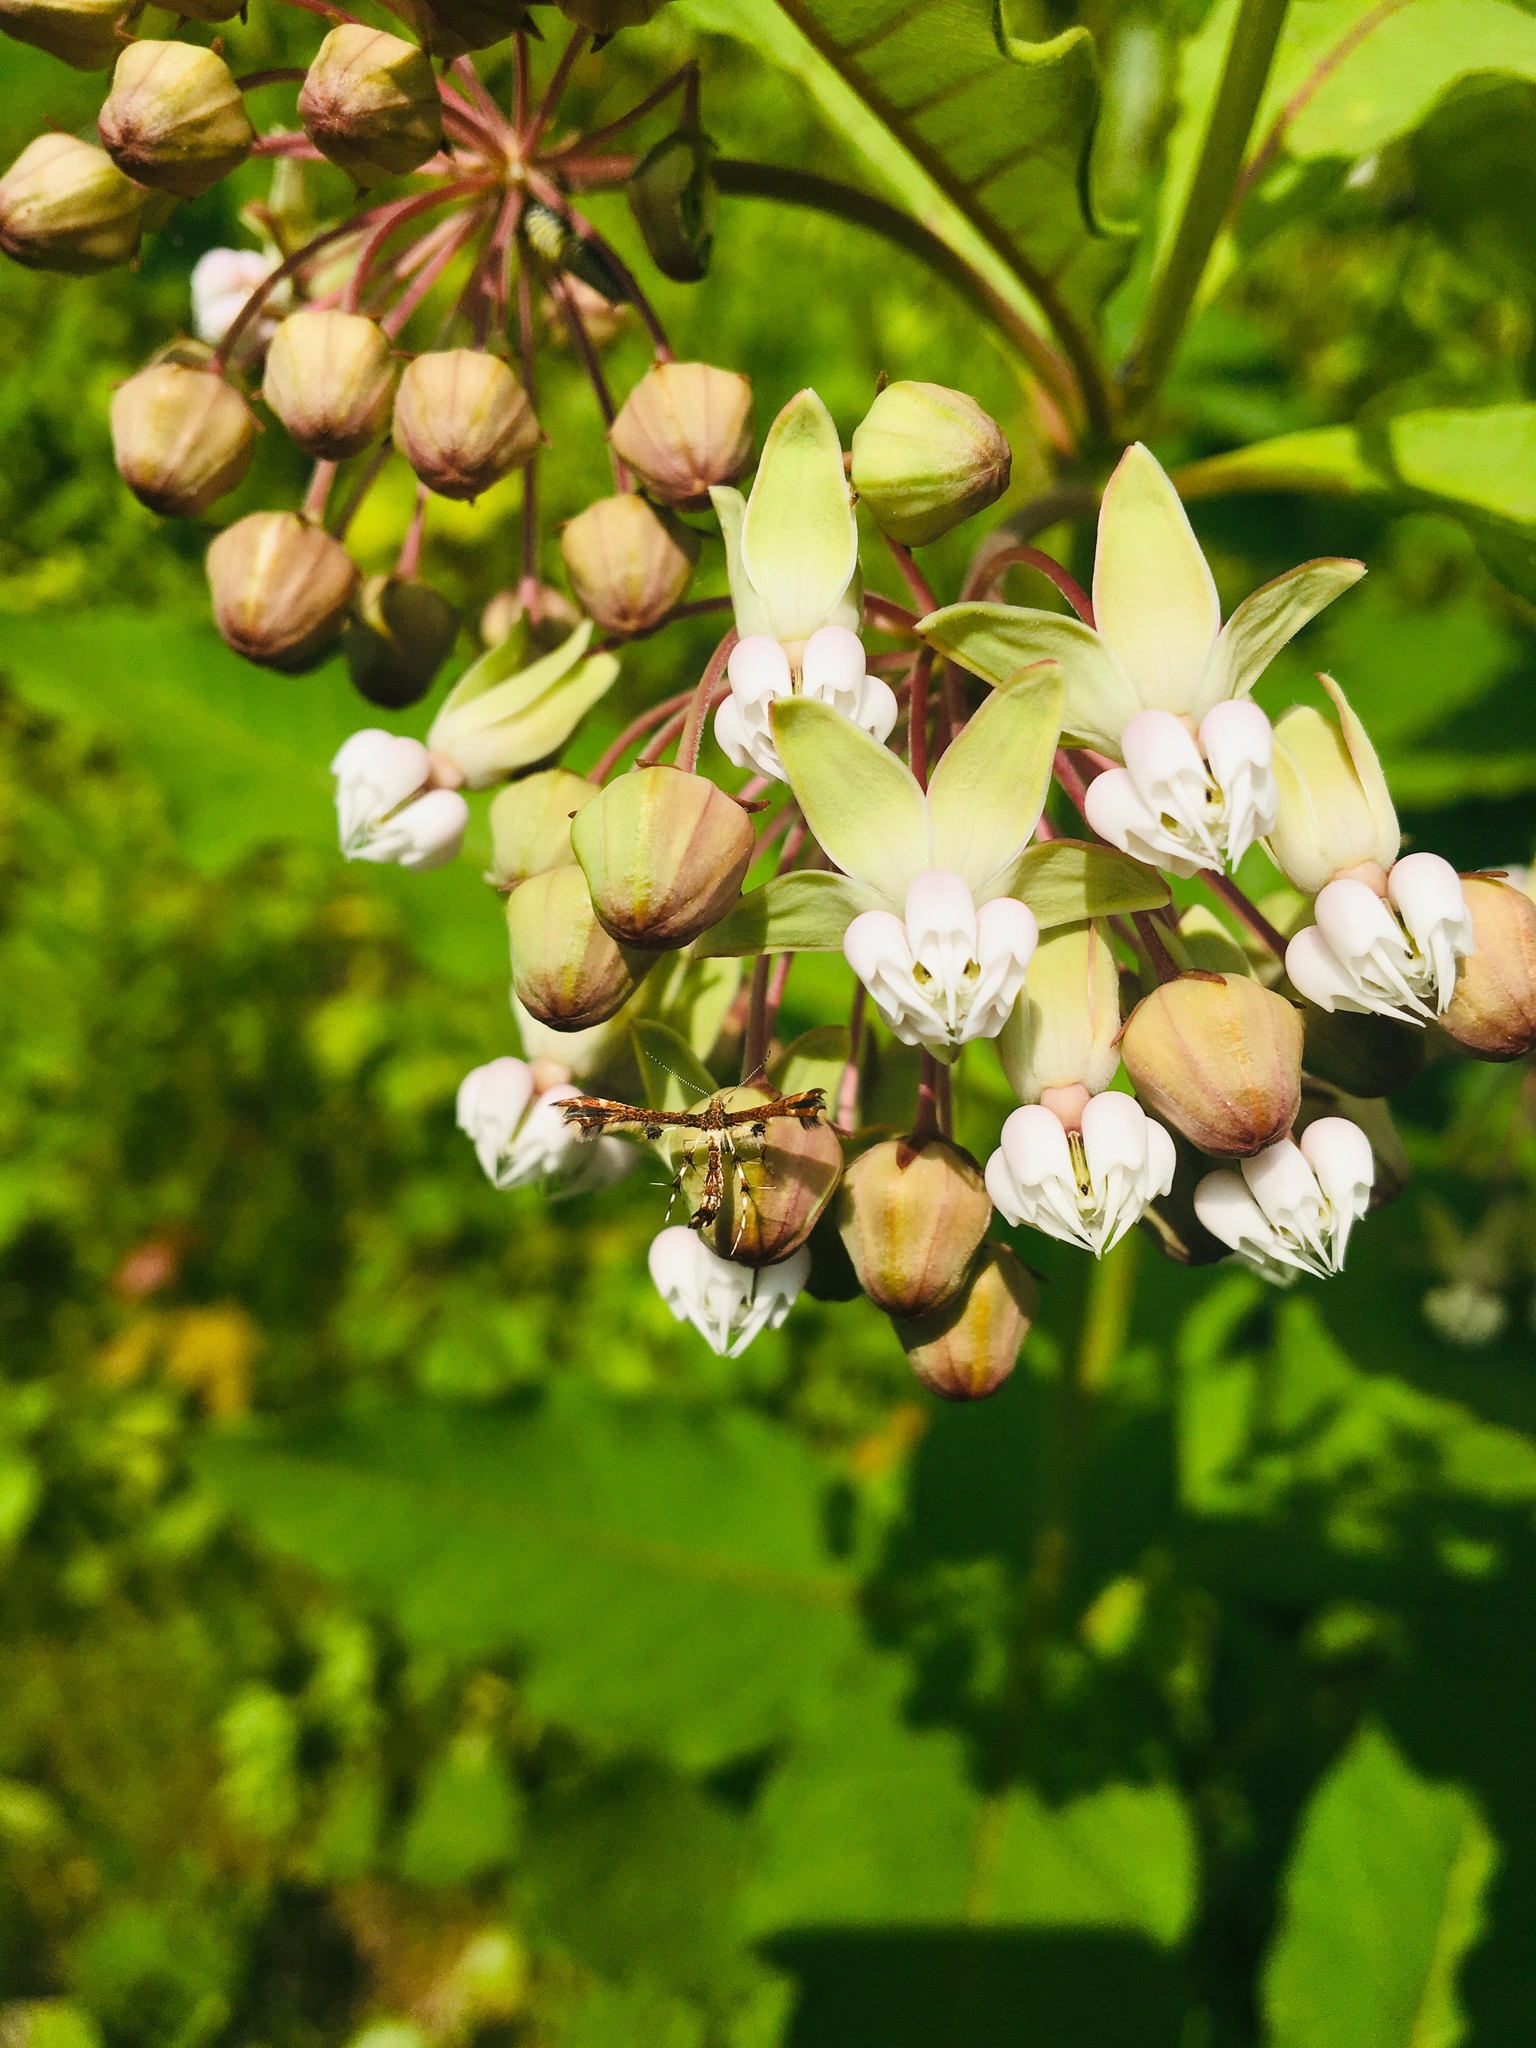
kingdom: Plantae
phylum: Tracheophyta
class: Magnoliopsida
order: Gentianales
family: Apocynaceae
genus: Asclepias
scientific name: Asclepias exaltata
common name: Poke milkweed
